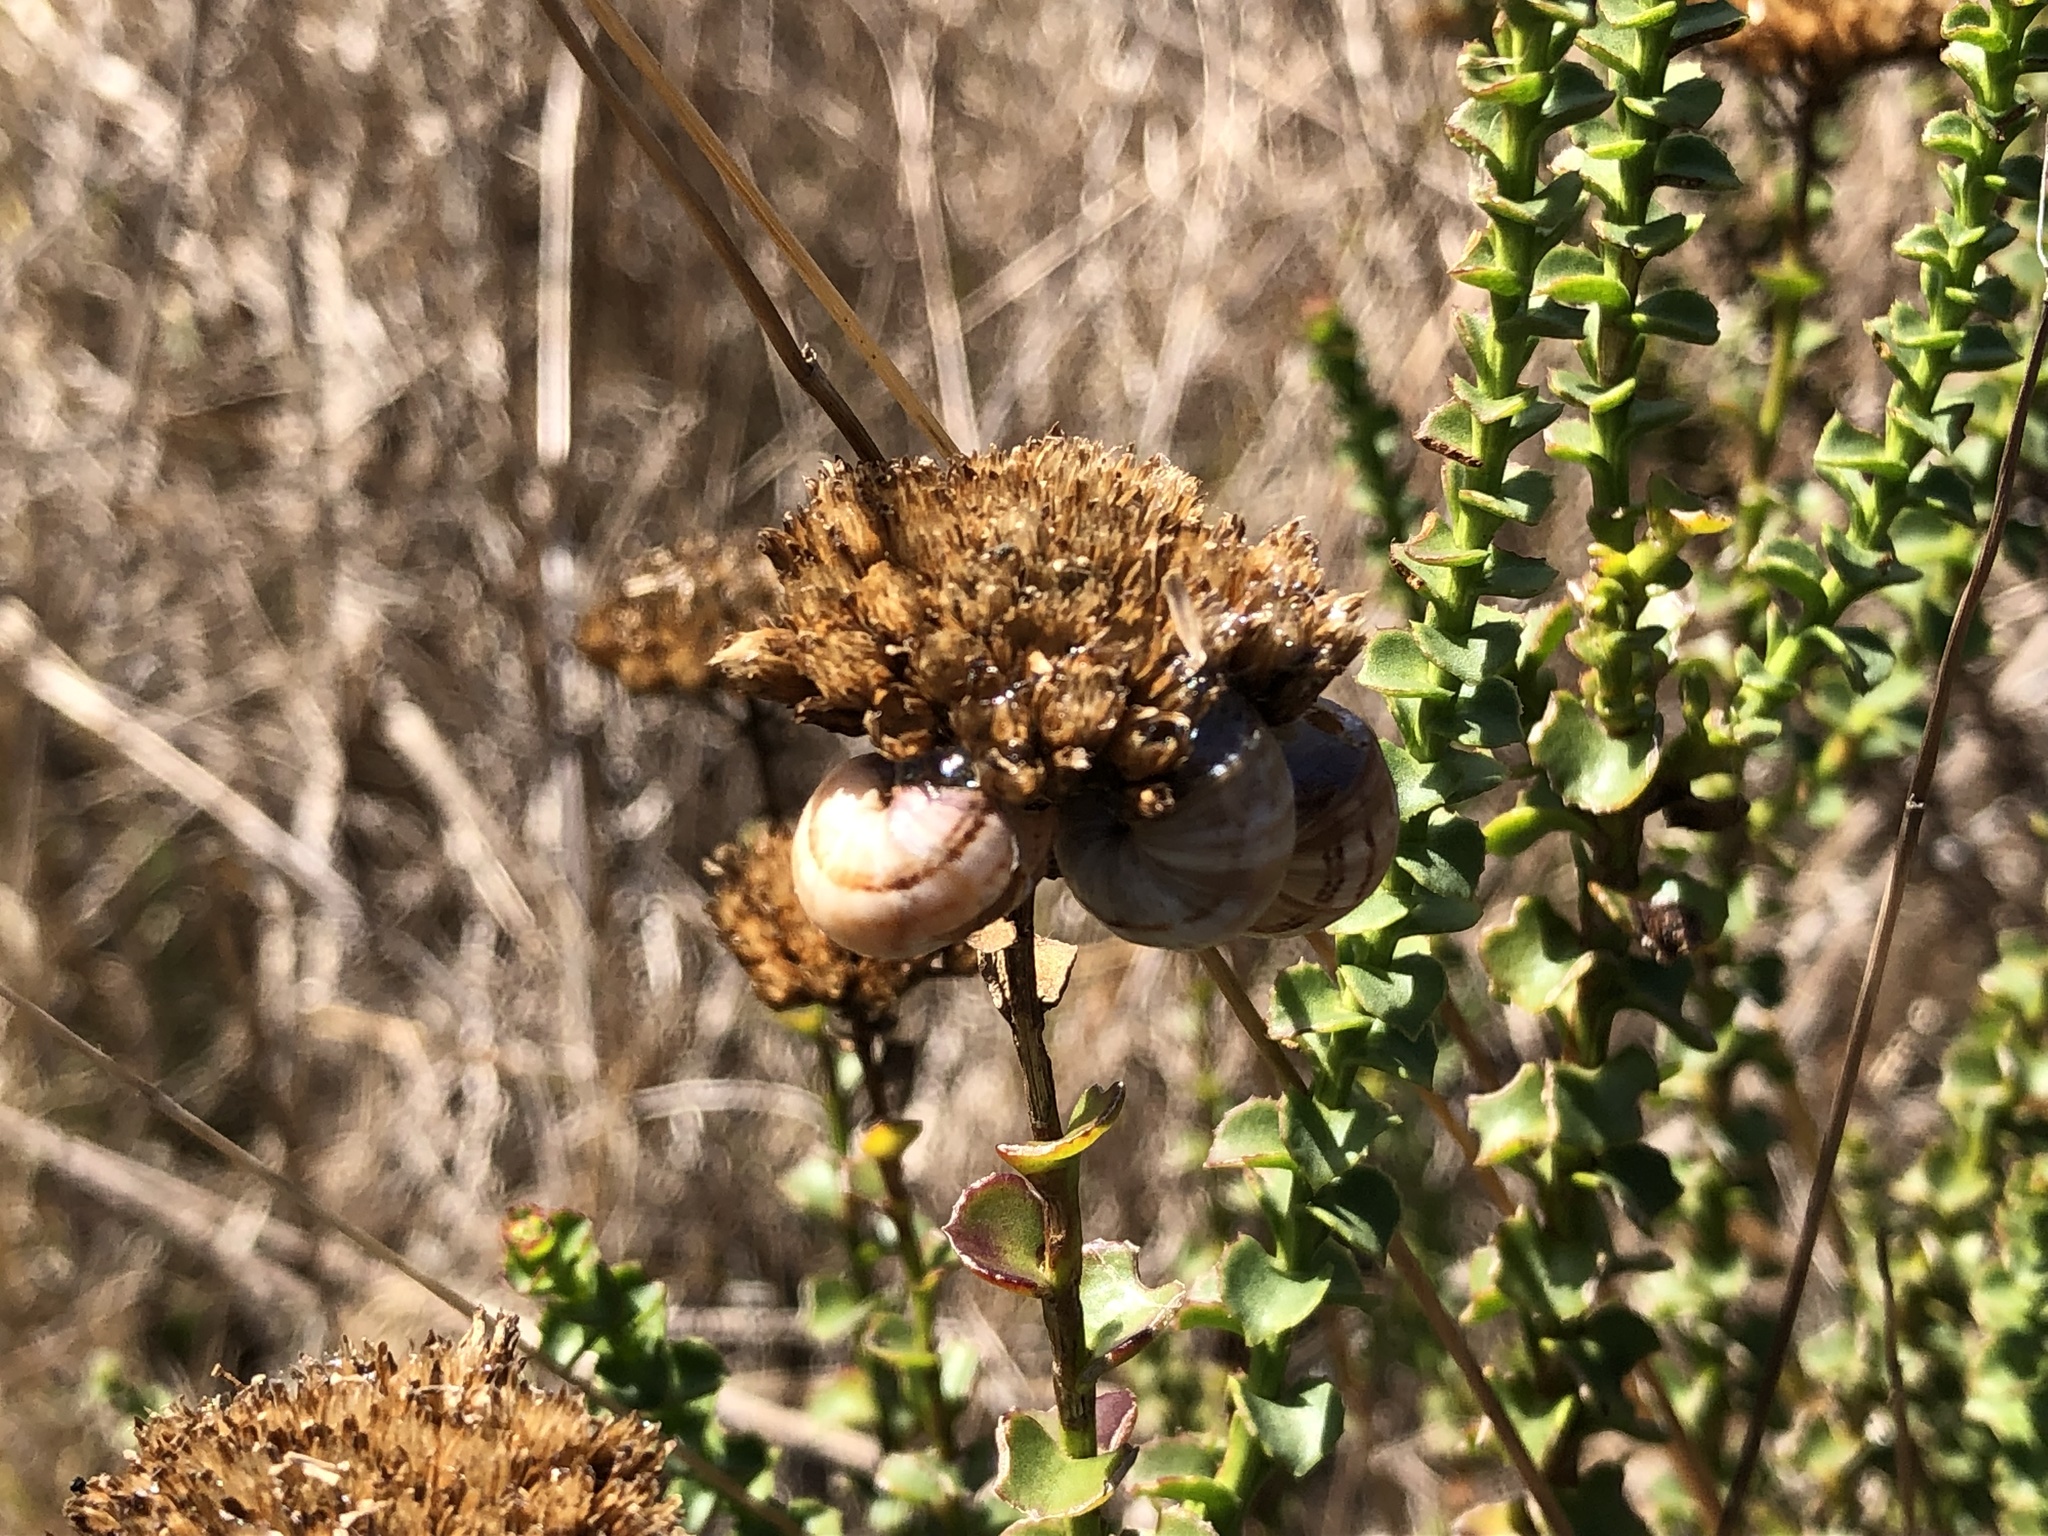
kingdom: Plantae
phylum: Tracheophyta
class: Magnoliopsida
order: Asterales
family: Asteraceae
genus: Athanasia
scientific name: Athanasia dentata
